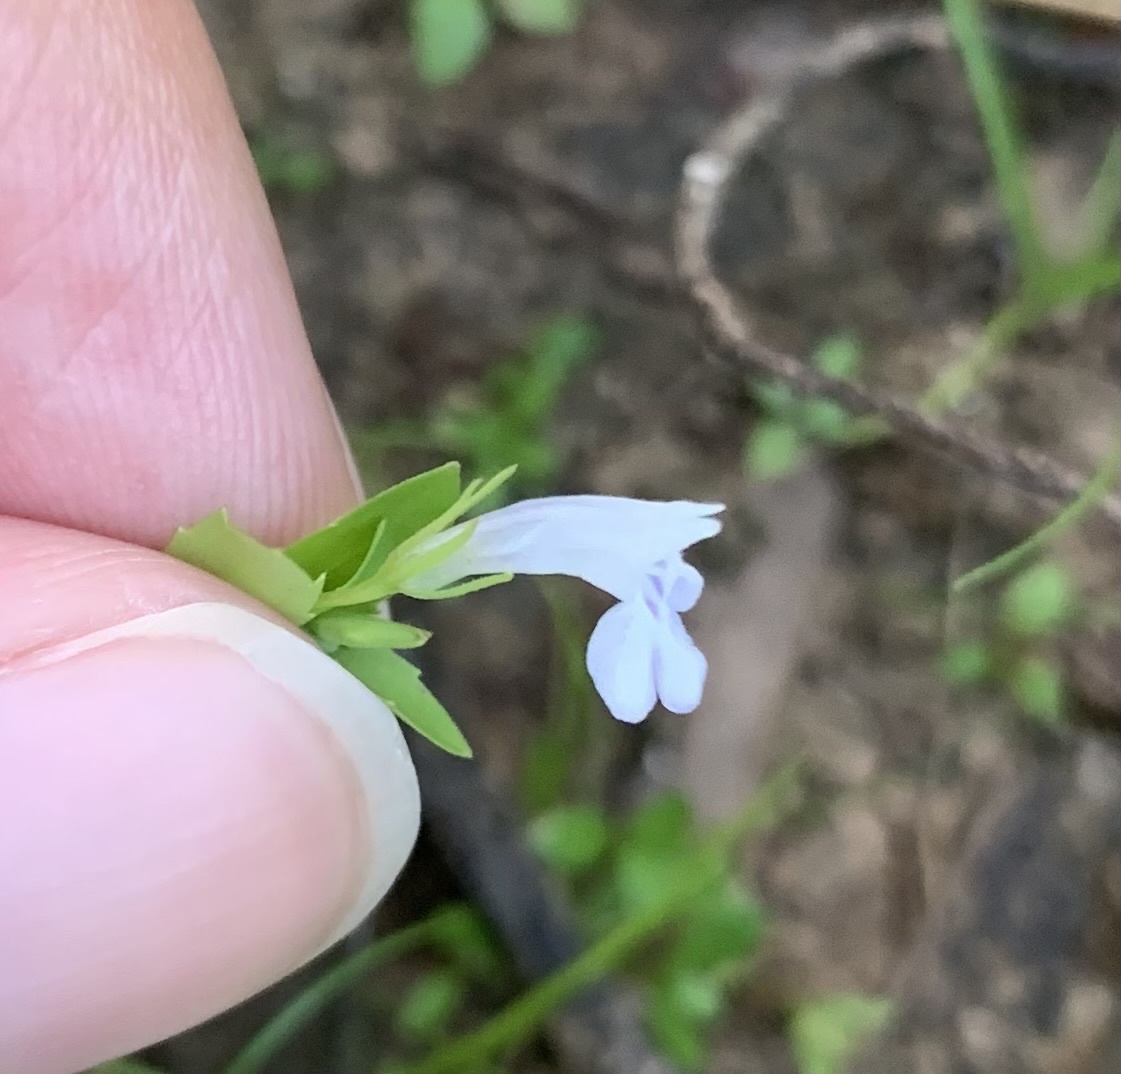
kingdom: Plantae
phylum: Tracheophyta
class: Magnoliopsida
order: Lamiales
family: Linderniaceae
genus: Lindernia
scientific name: Lindernia dubia
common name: Annual false pimpernel
